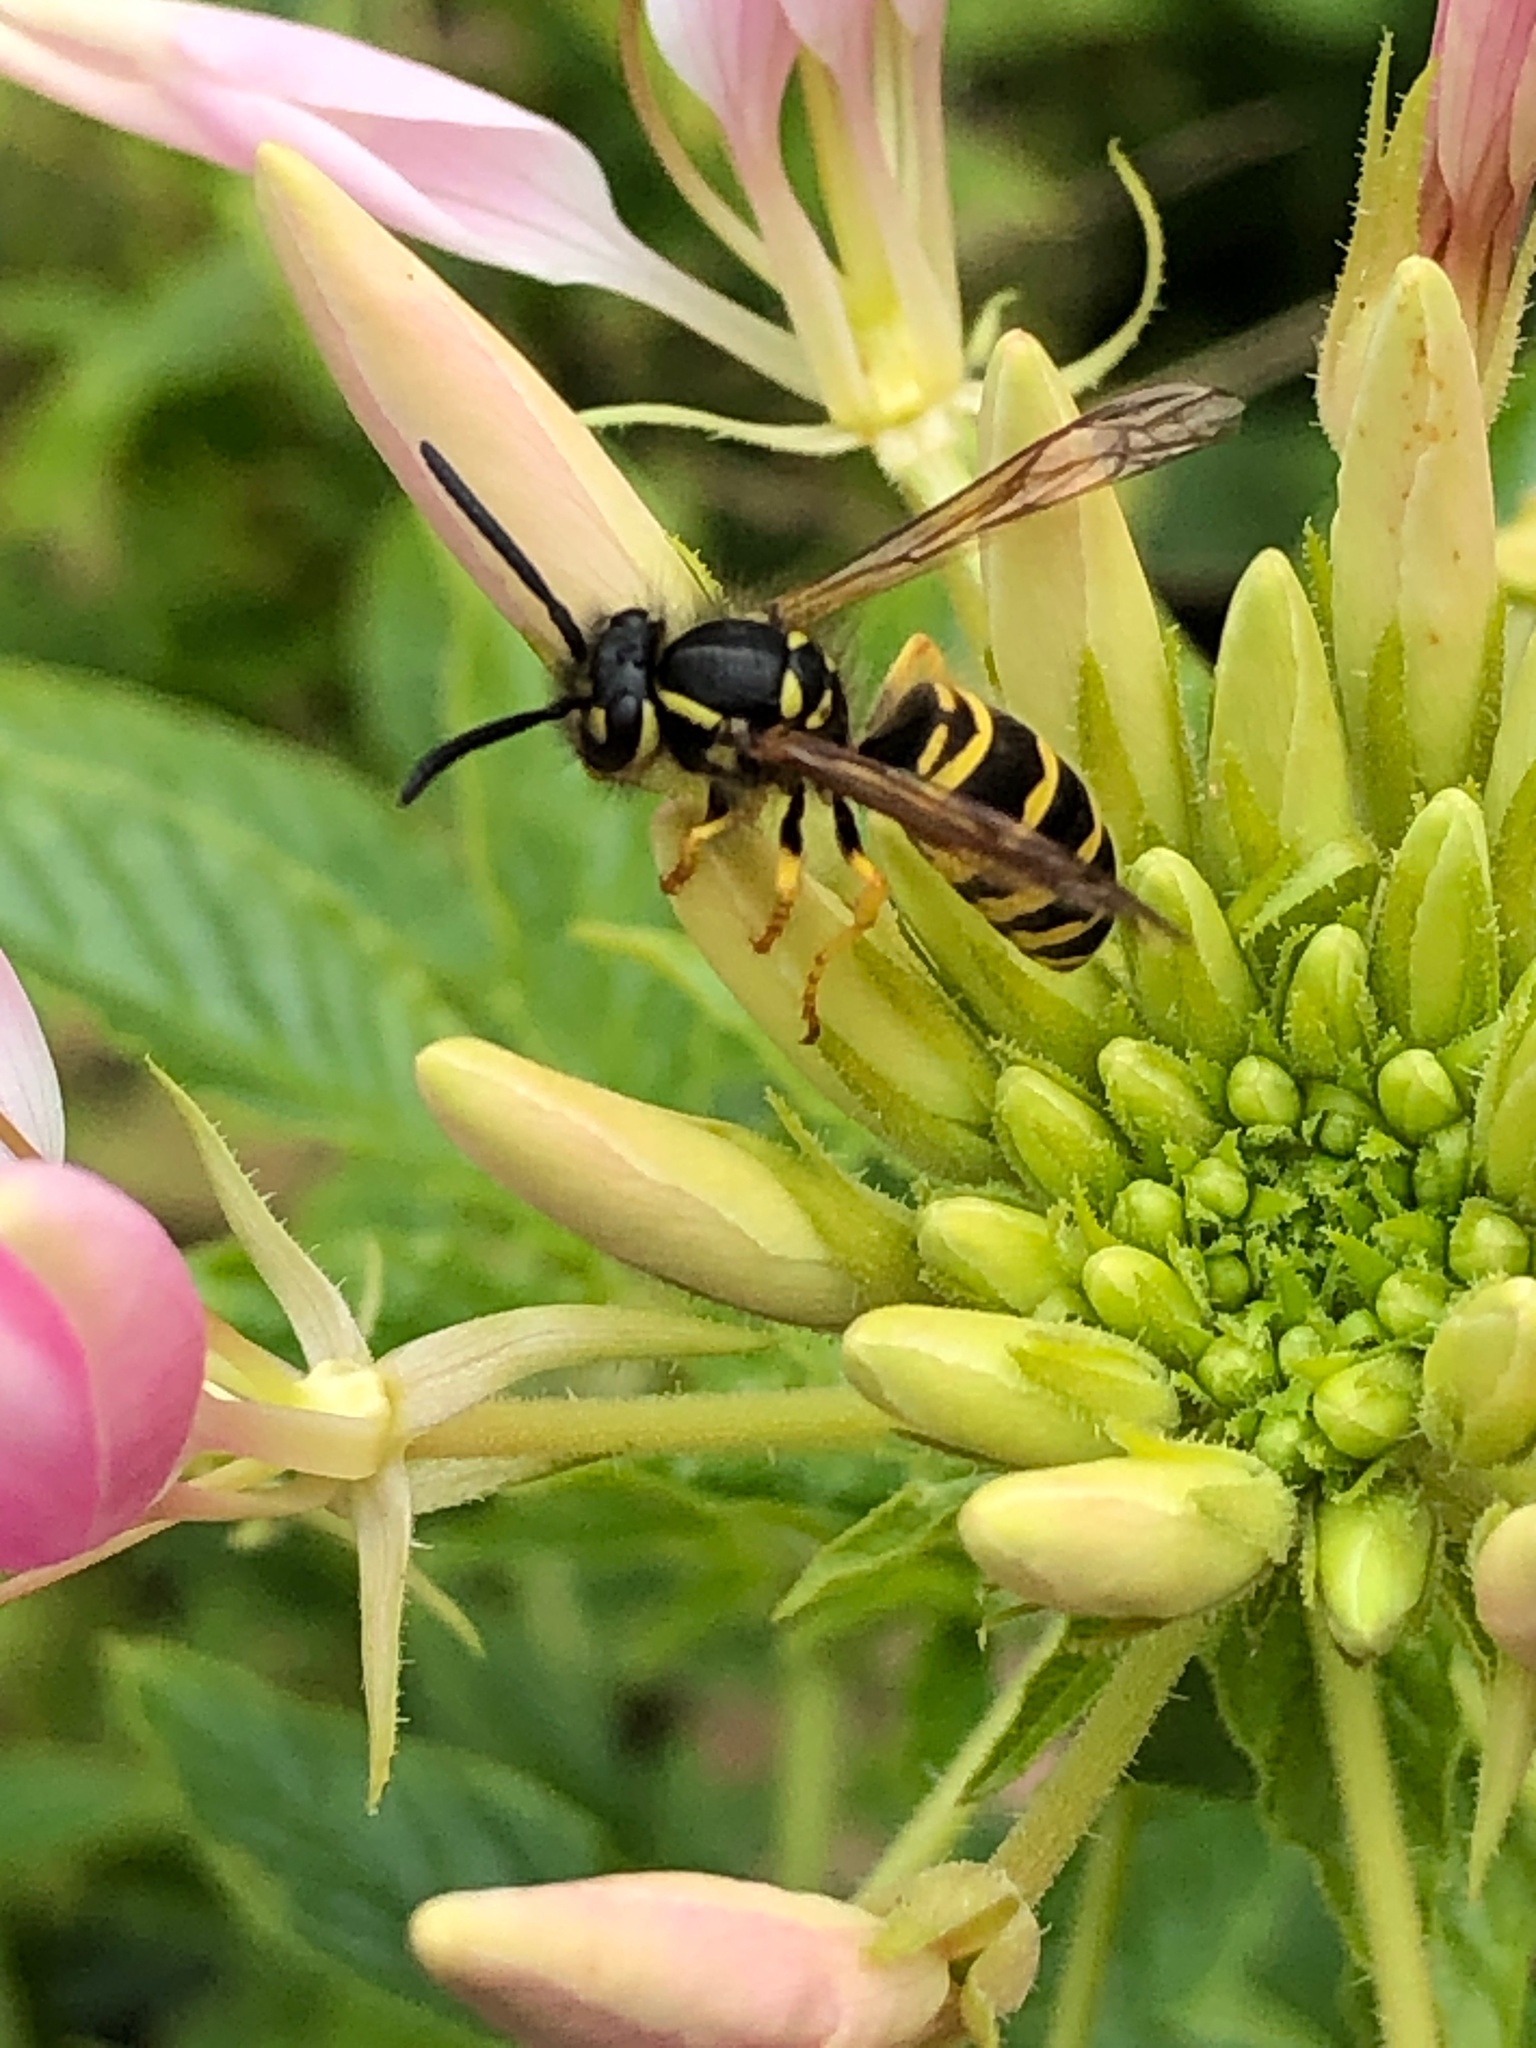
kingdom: Animalia
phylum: Arthropoda
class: Insecta
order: Hymenoptera
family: Vespidae
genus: Vespula
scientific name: Vespula maculifrons
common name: Eastern yellowjacket
